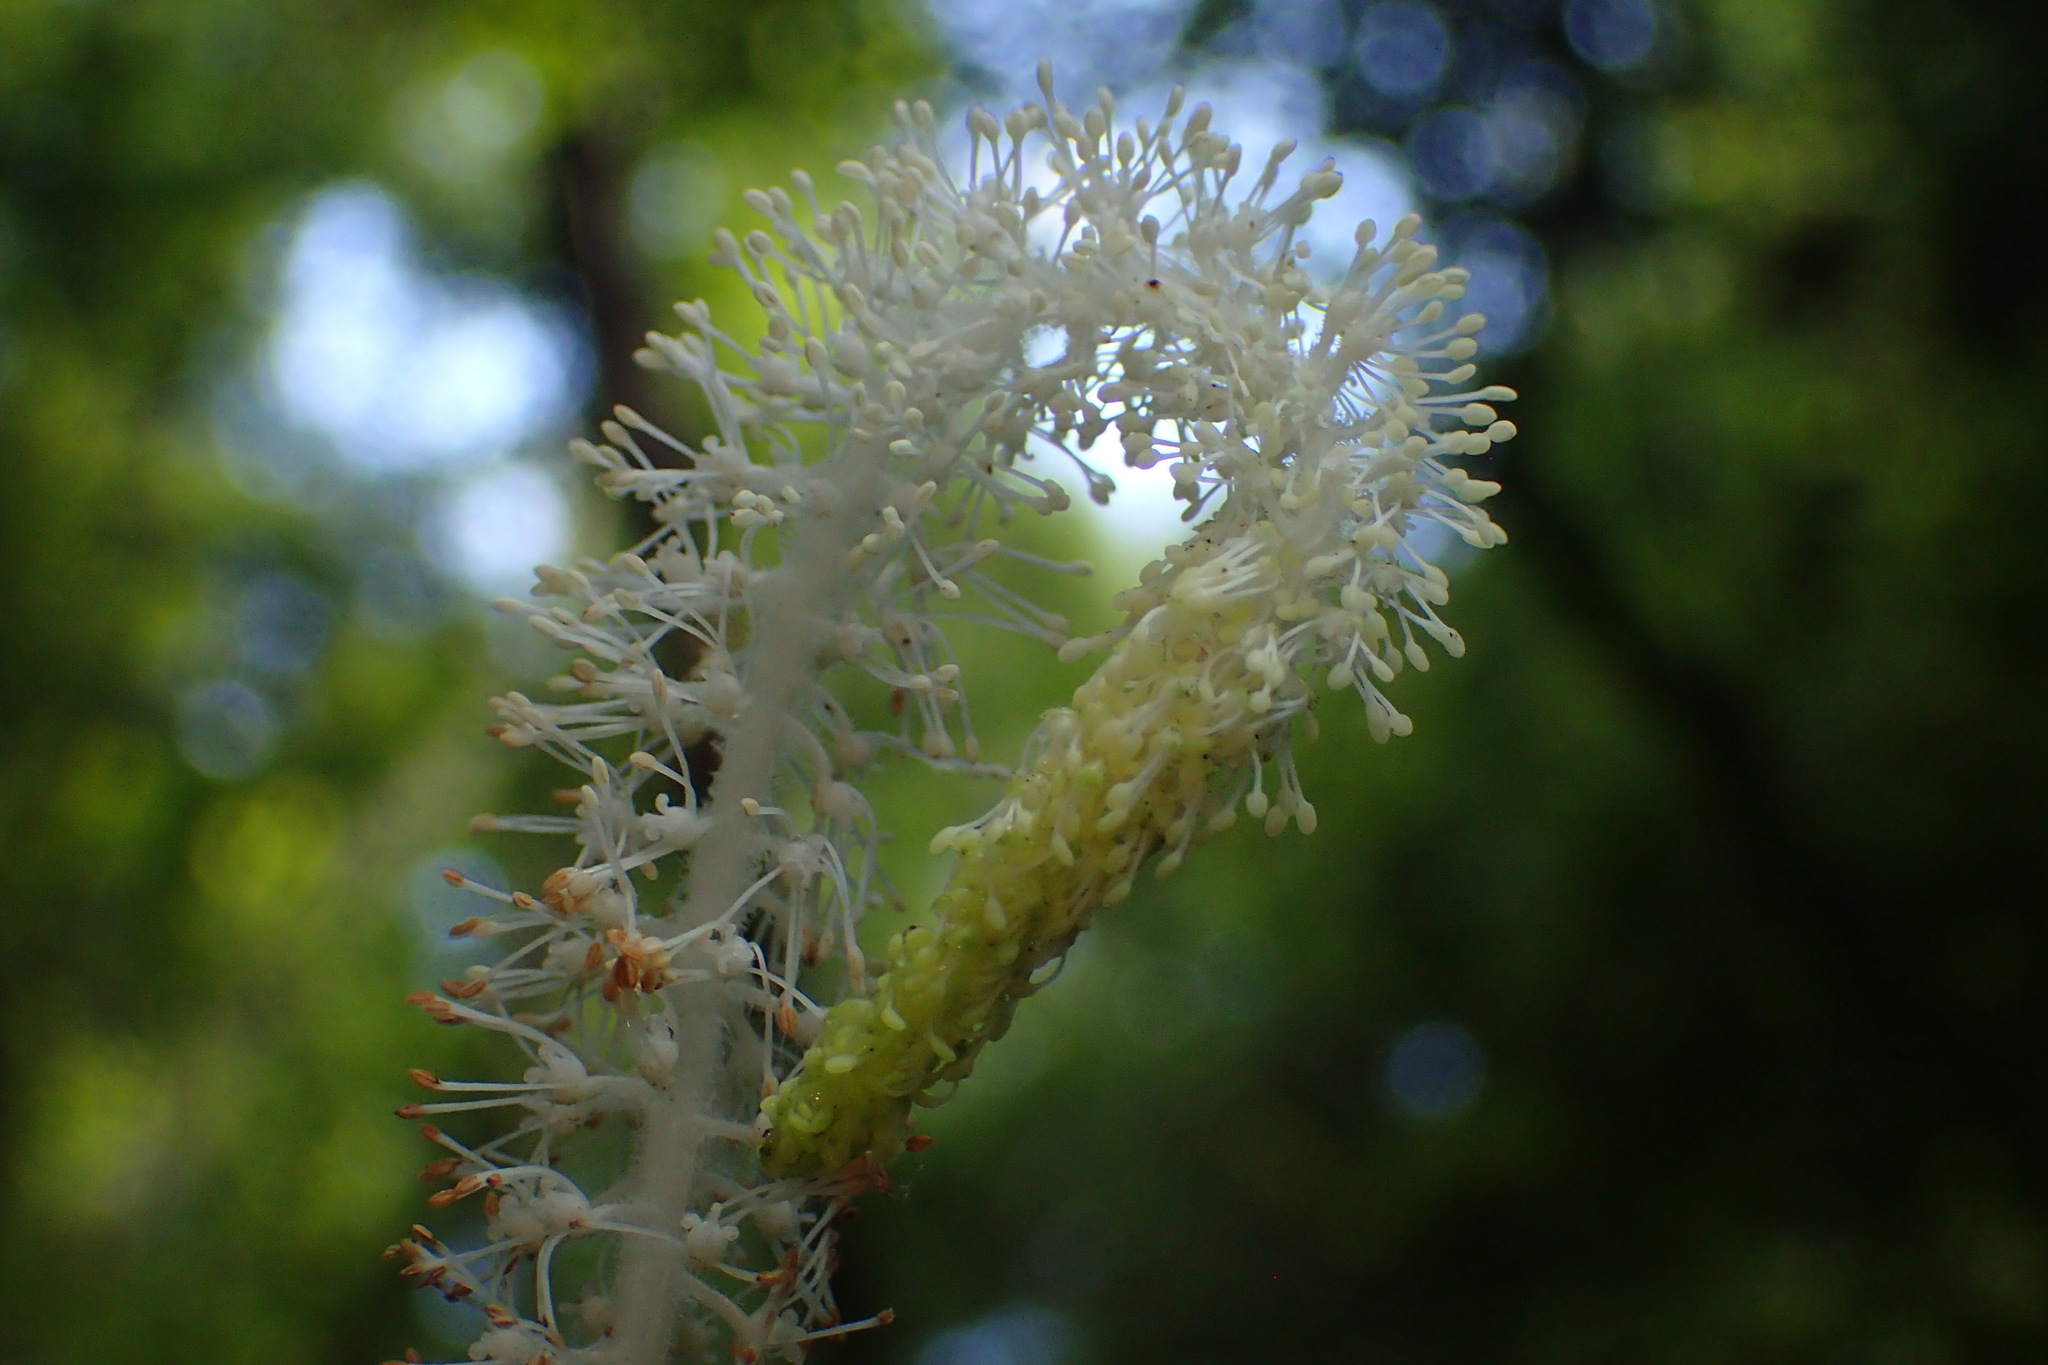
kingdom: Plantae
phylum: Tracheophyta
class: Magnoliopsida
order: Piperales
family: Saururaceae
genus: Saururus
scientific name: Saururus cernuus
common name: Lizard's-tail
